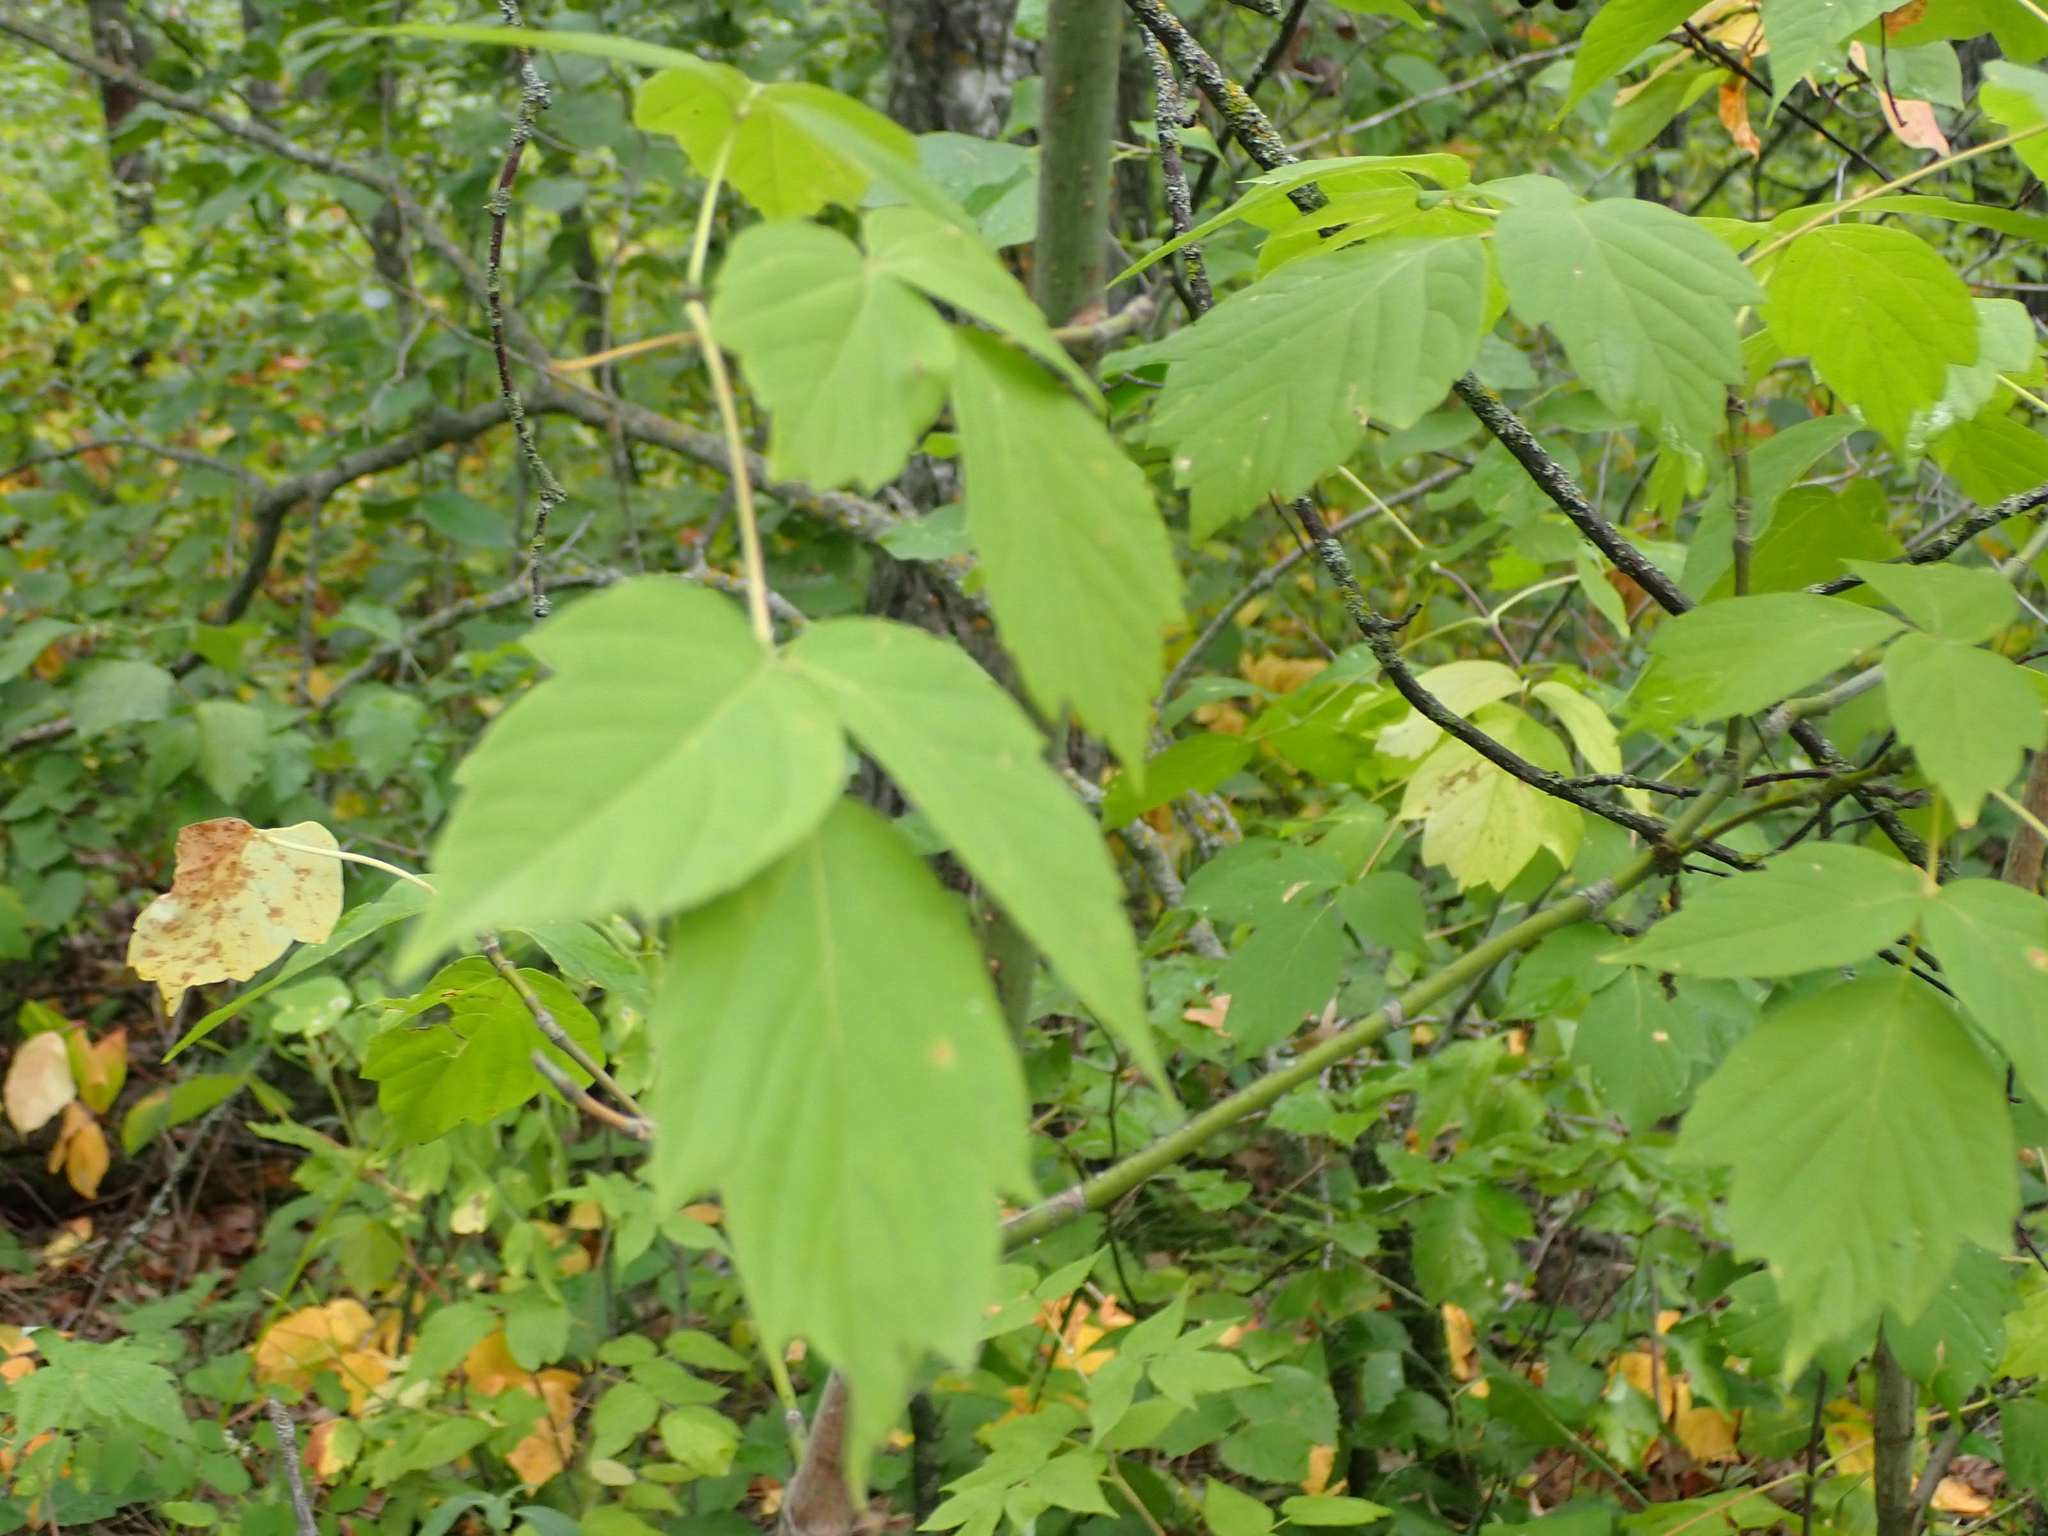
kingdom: Plantae
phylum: Tracheophyta
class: Magnoliopsida
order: Sapindales
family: Sapindaceae
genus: Acer
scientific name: Acer negundo
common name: Ashleaf maple
